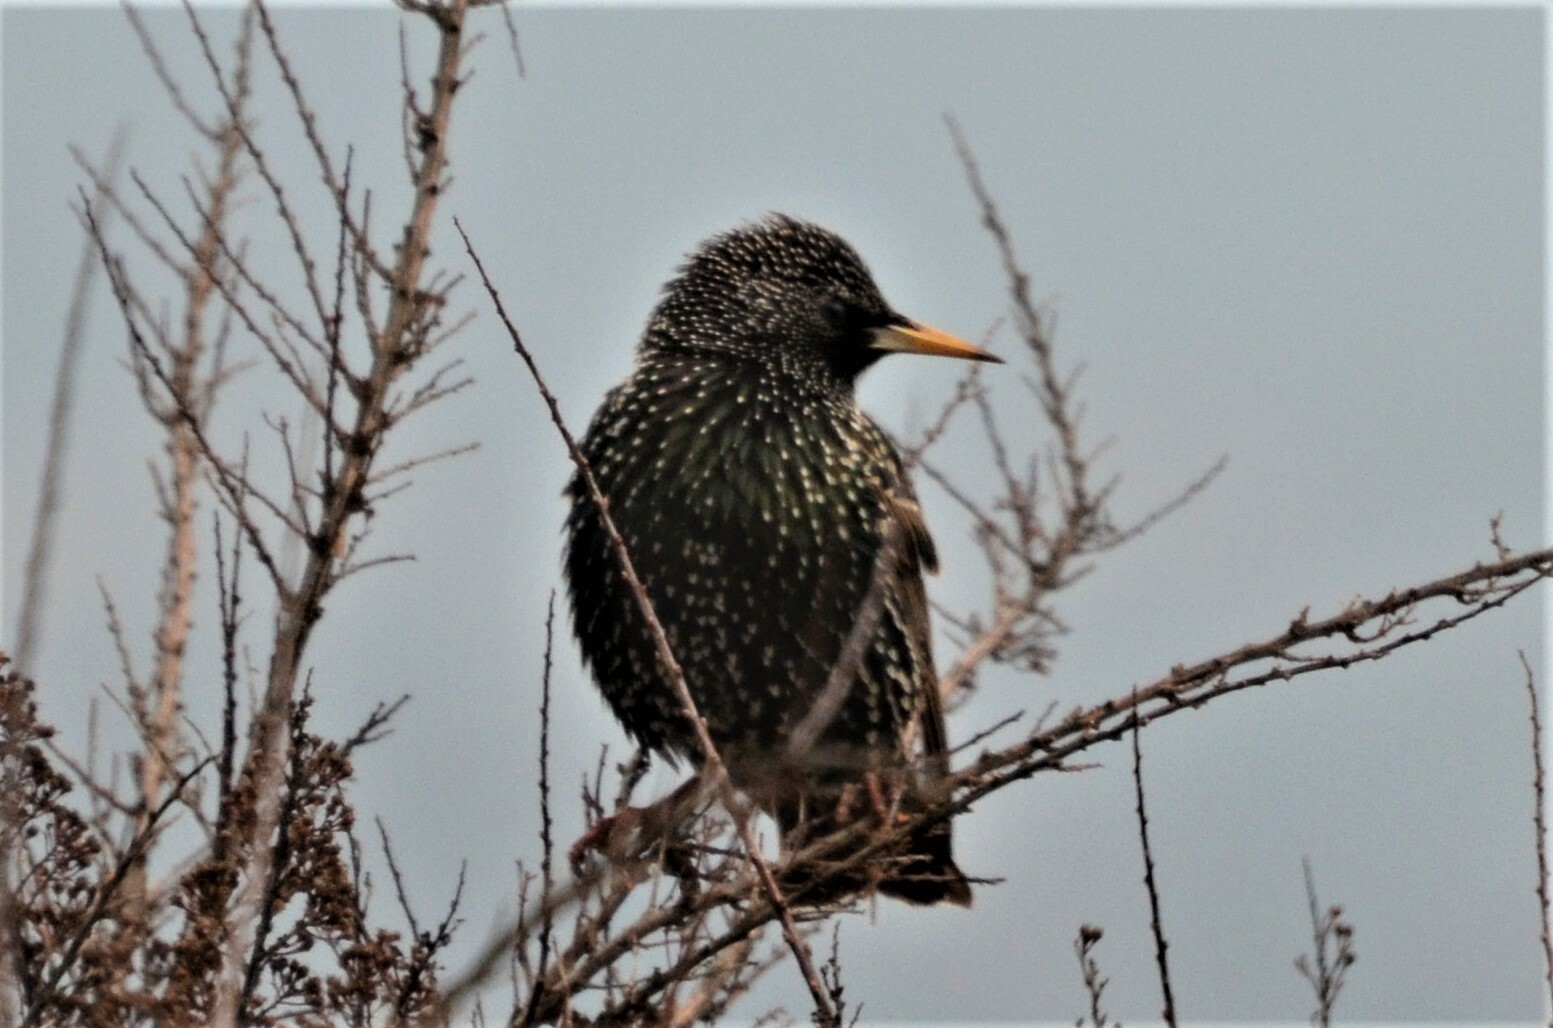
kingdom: Animalia
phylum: Chordata
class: Aves
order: Passeriformes
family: Sturnidae
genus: Sturnus
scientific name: Sturnus vulgaris
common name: Common starling
